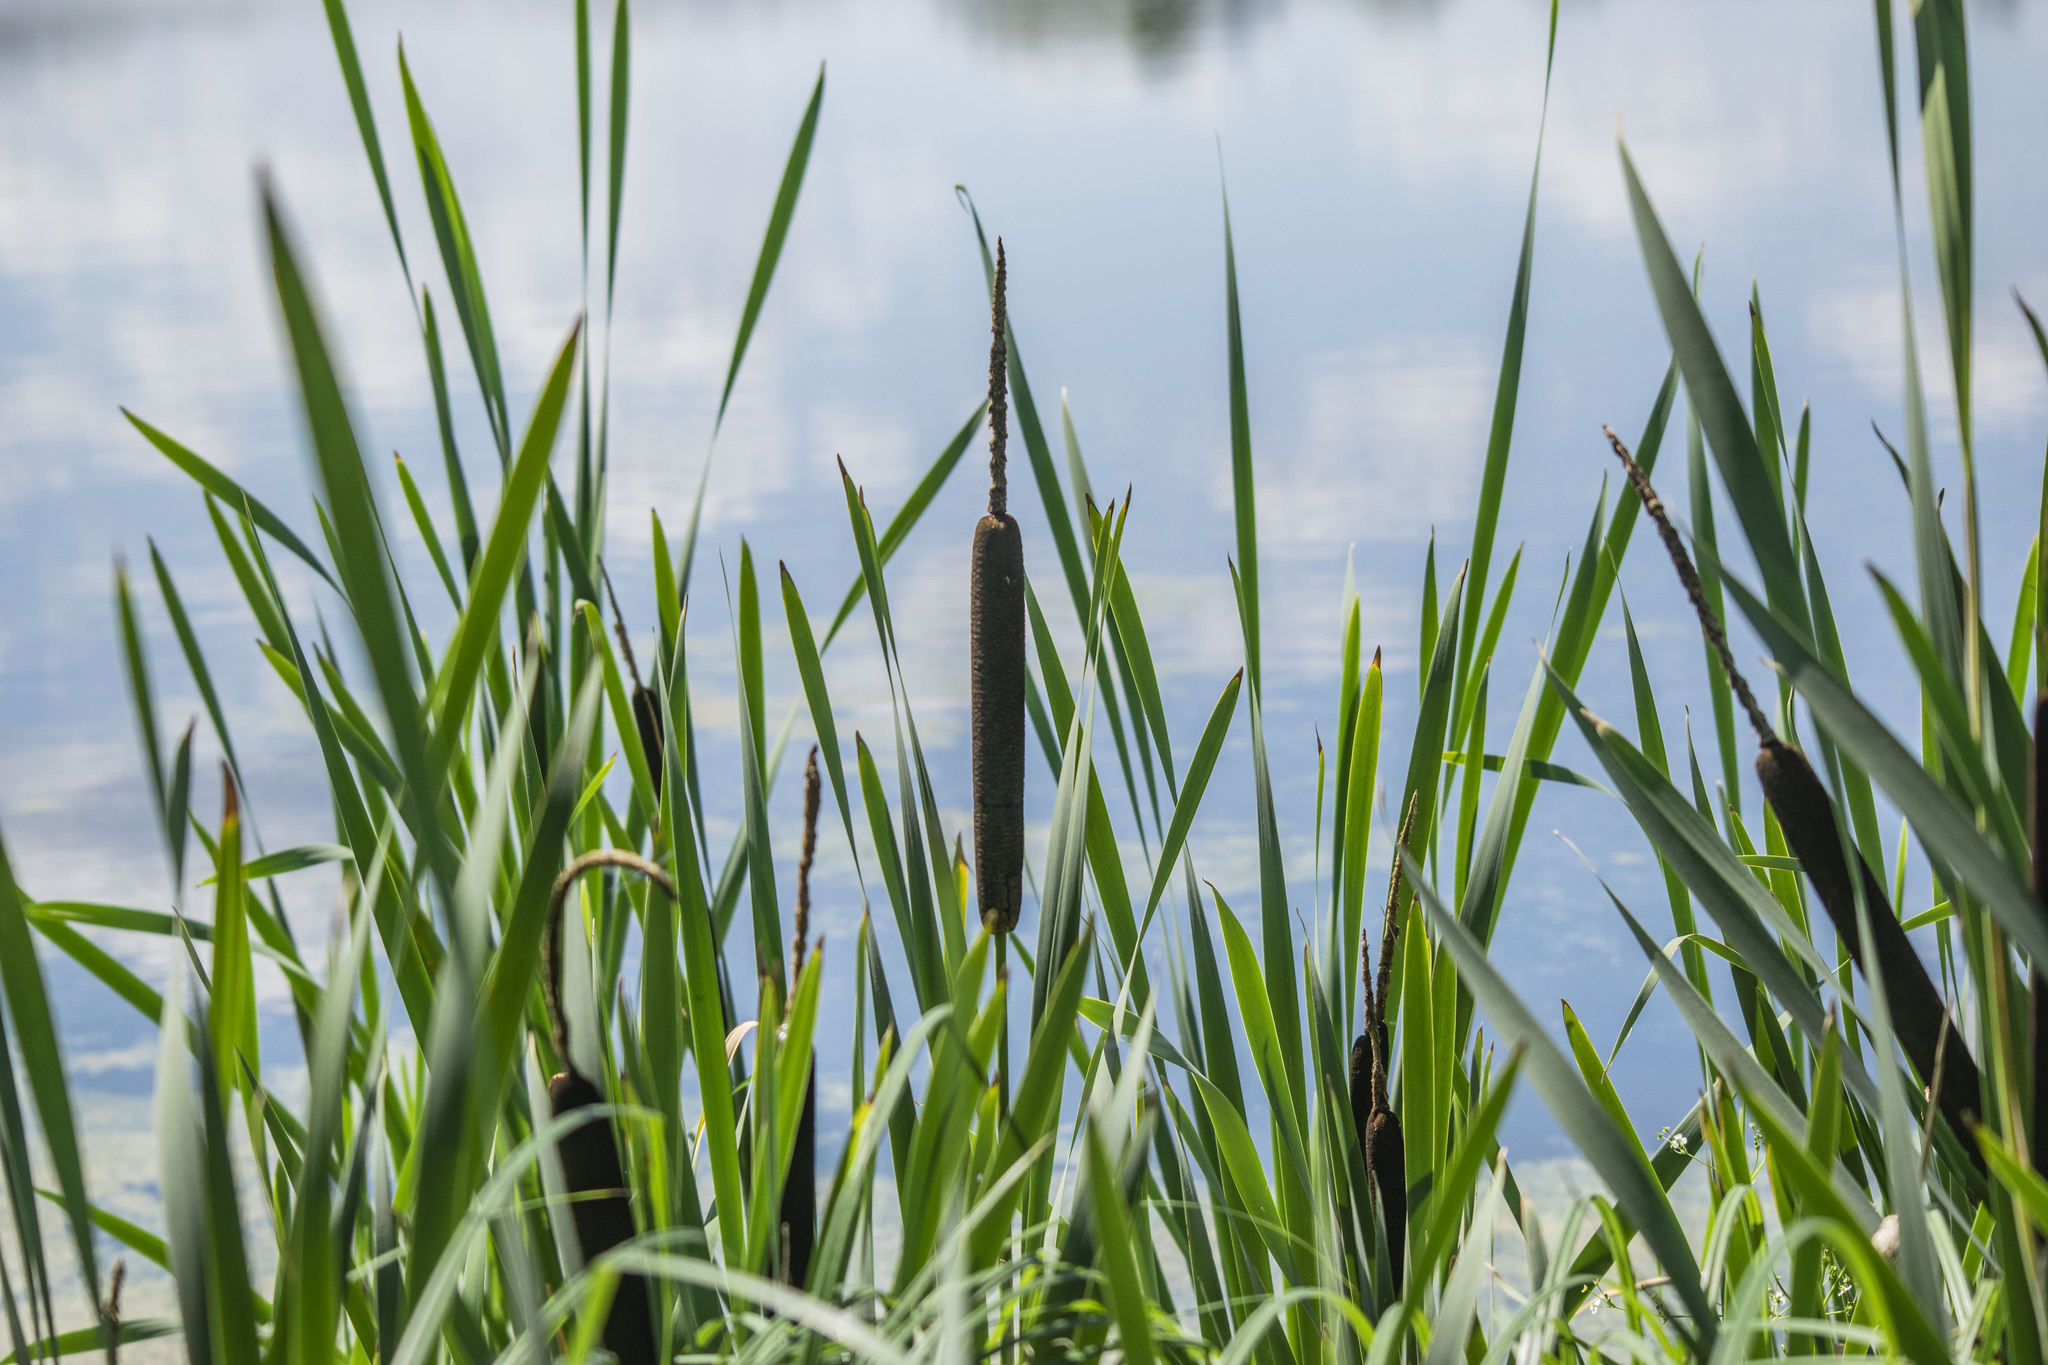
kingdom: Plantae
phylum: Tracheophyta
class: Liliopsida
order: Poales
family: Typhaceae
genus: Typha
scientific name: Typha latifolia
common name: Broadleaf cattail
